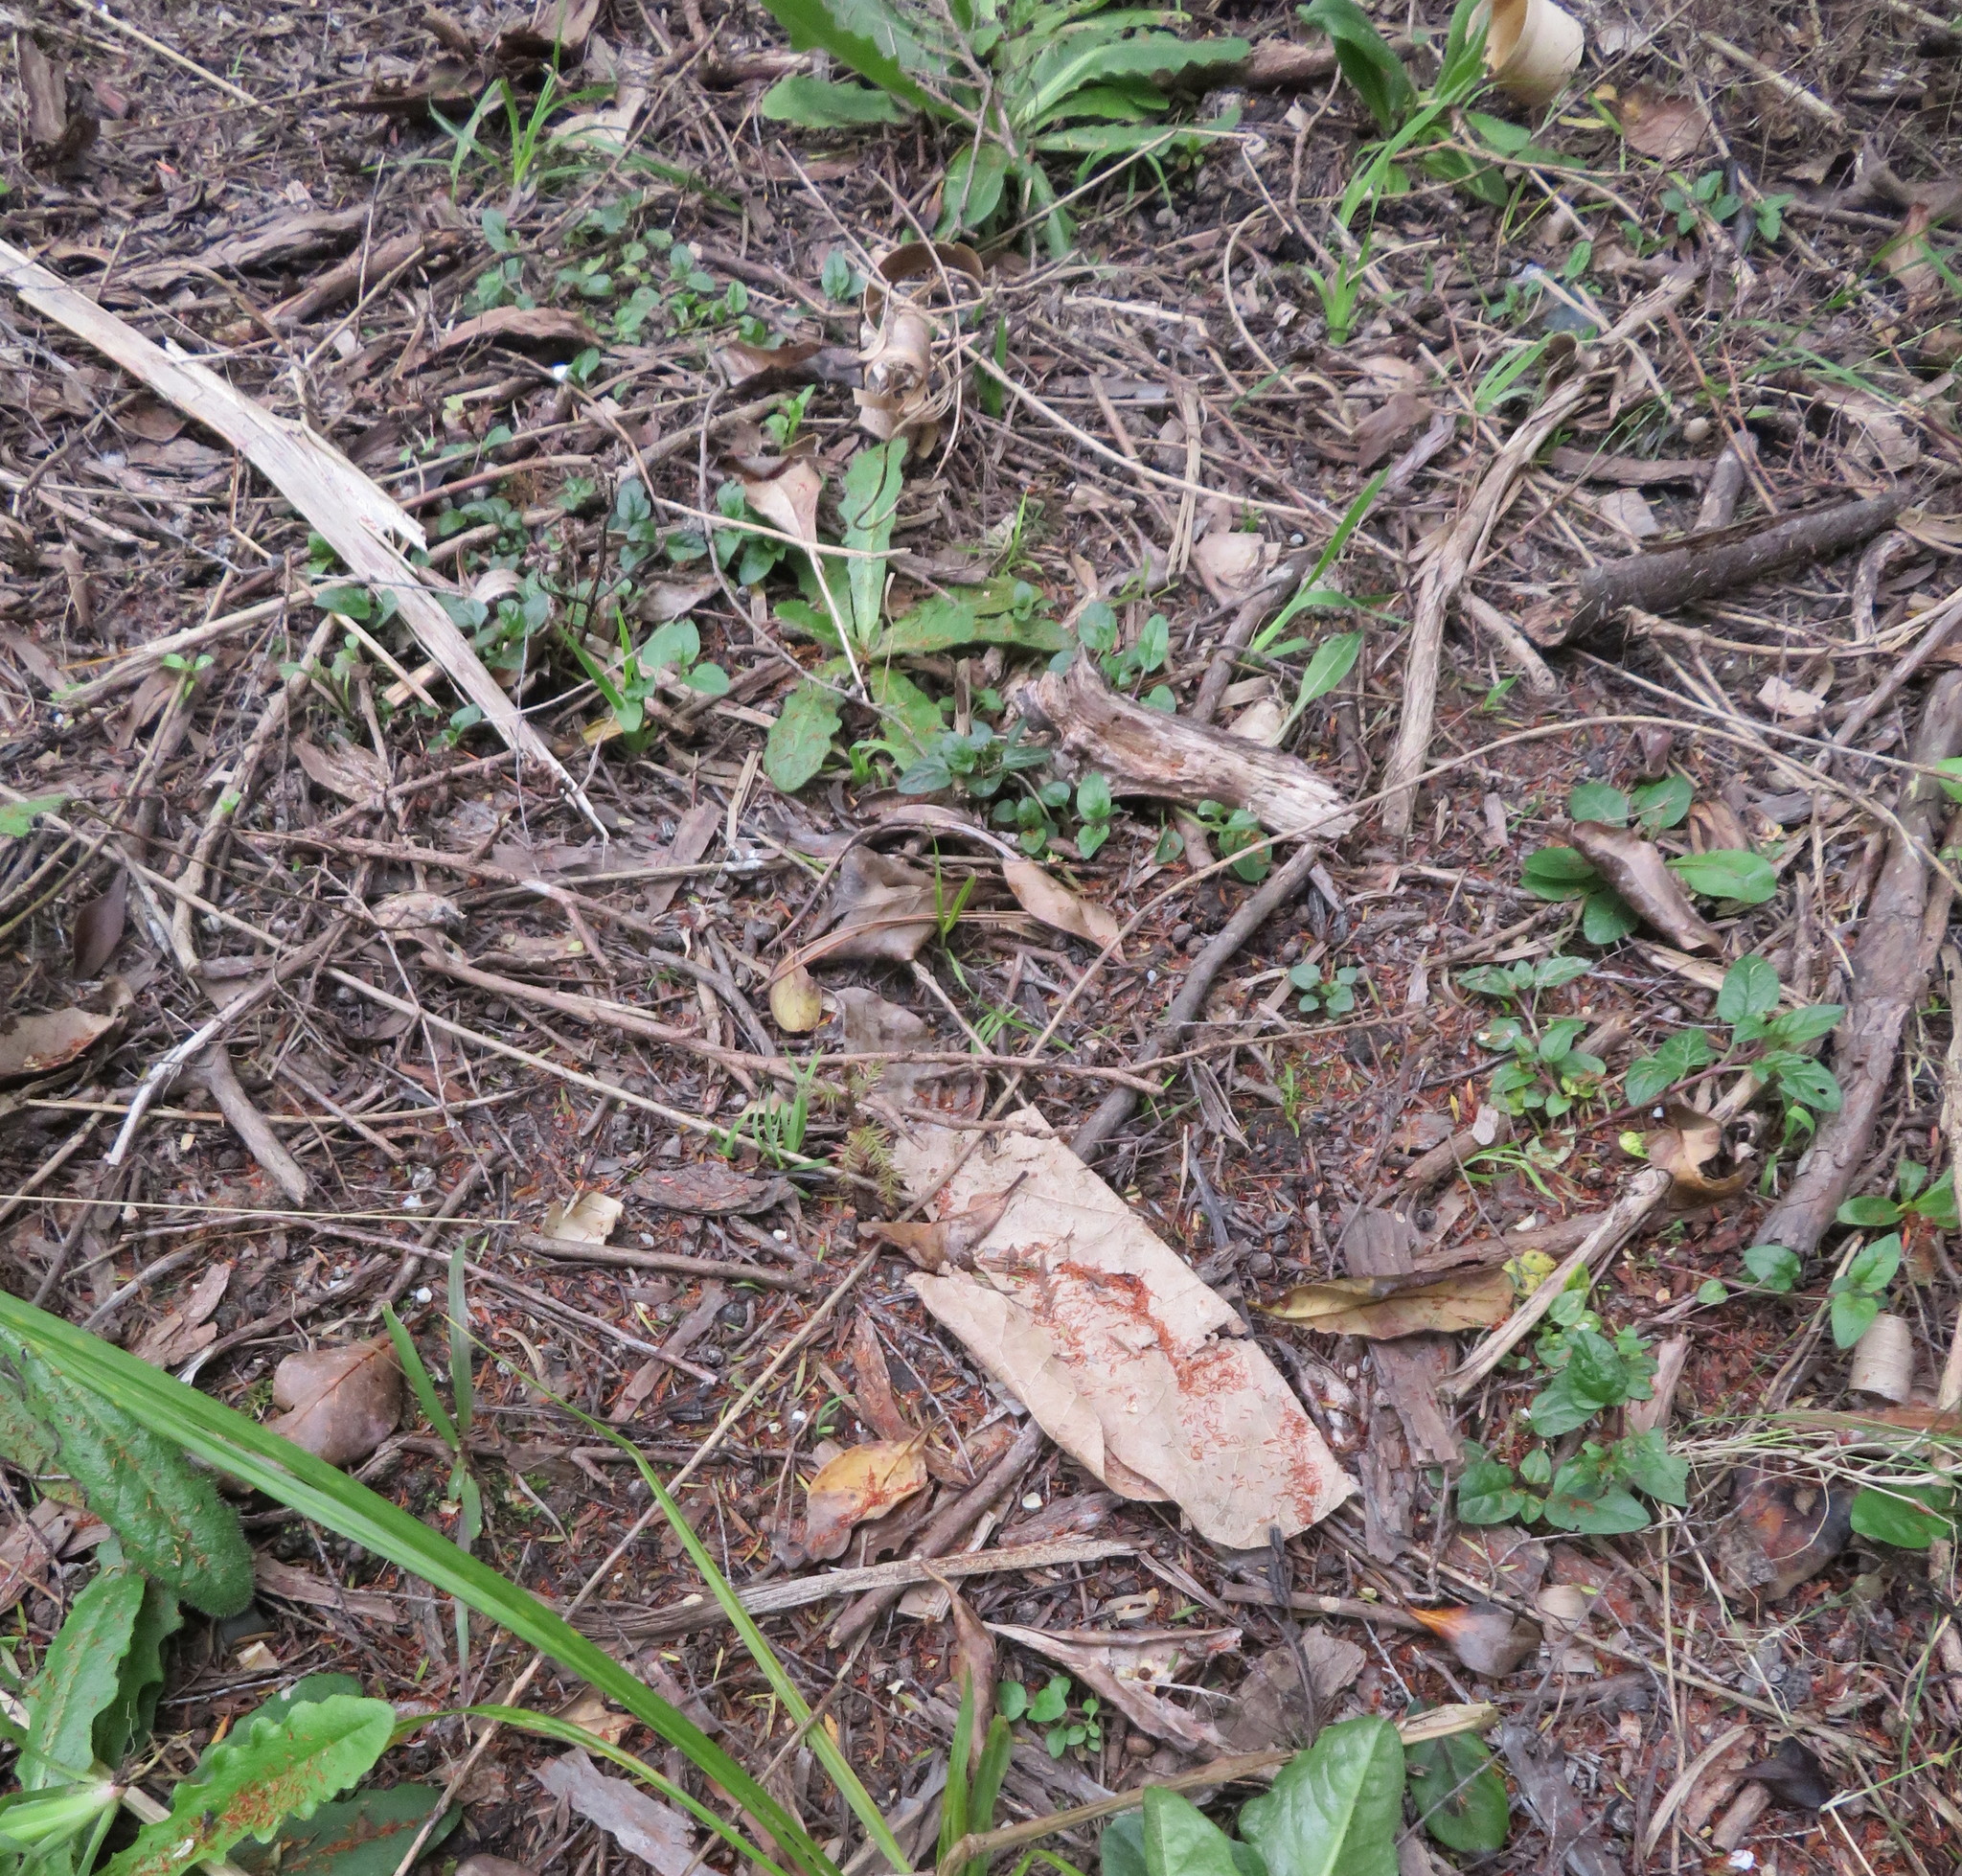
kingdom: Plantae
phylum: Tracheophyta
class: Pinopsida
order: Pinales
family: Podocarpaceae
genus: Dacrycarpus
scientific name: Dacrycarpus dacrydioides
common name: White pine
